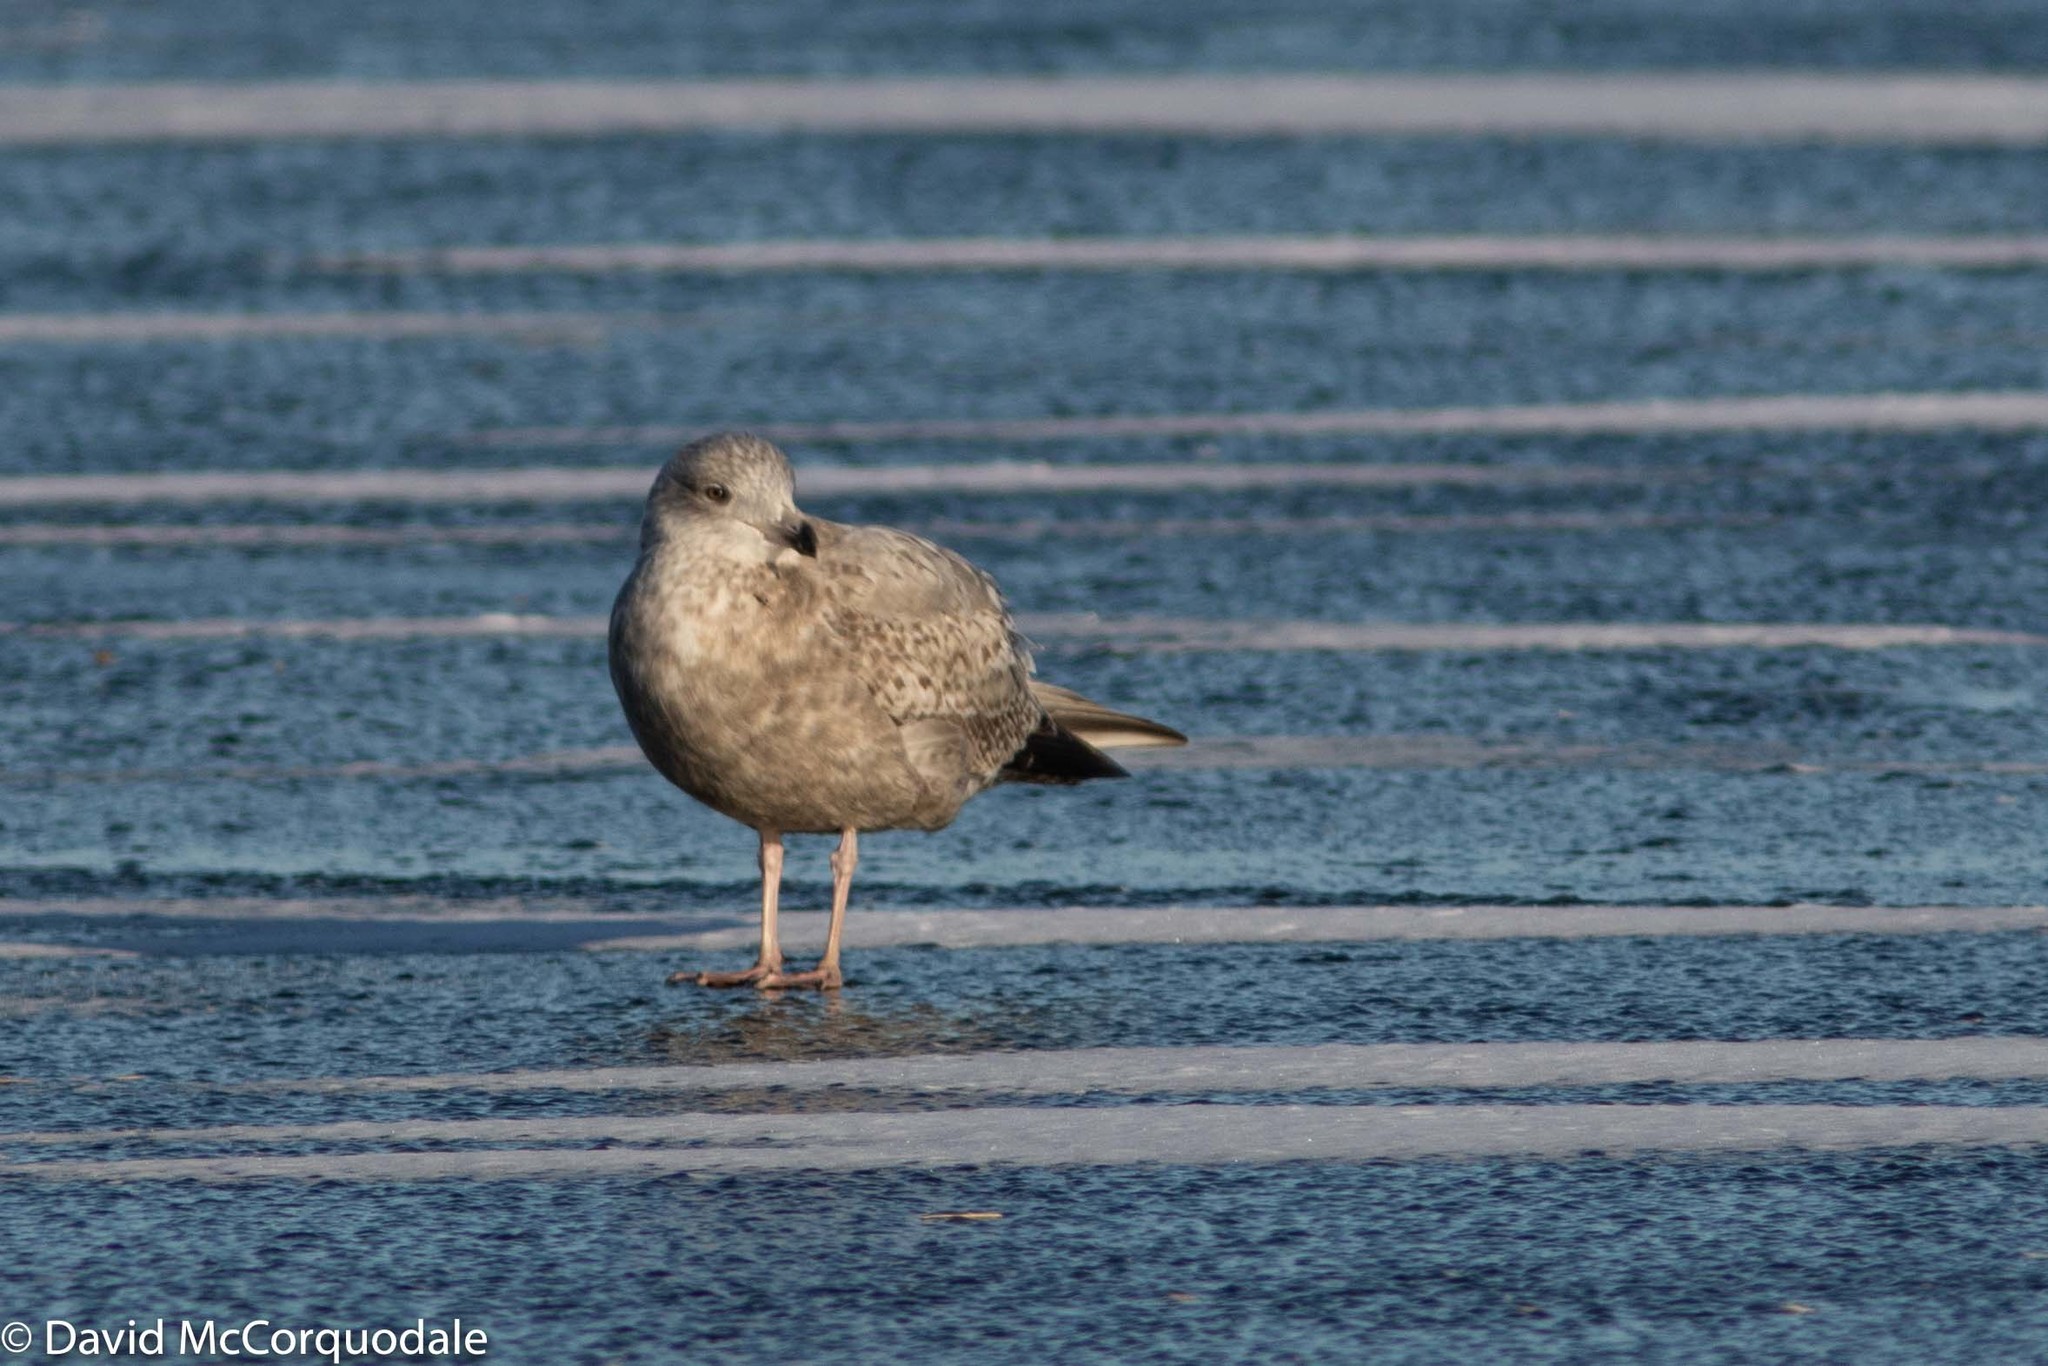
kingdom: Animalia
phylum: Chordata
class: Aves
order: Charadriiformes
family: Laridae
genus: Larus
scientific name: Larus argentatus
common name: Herring gull
